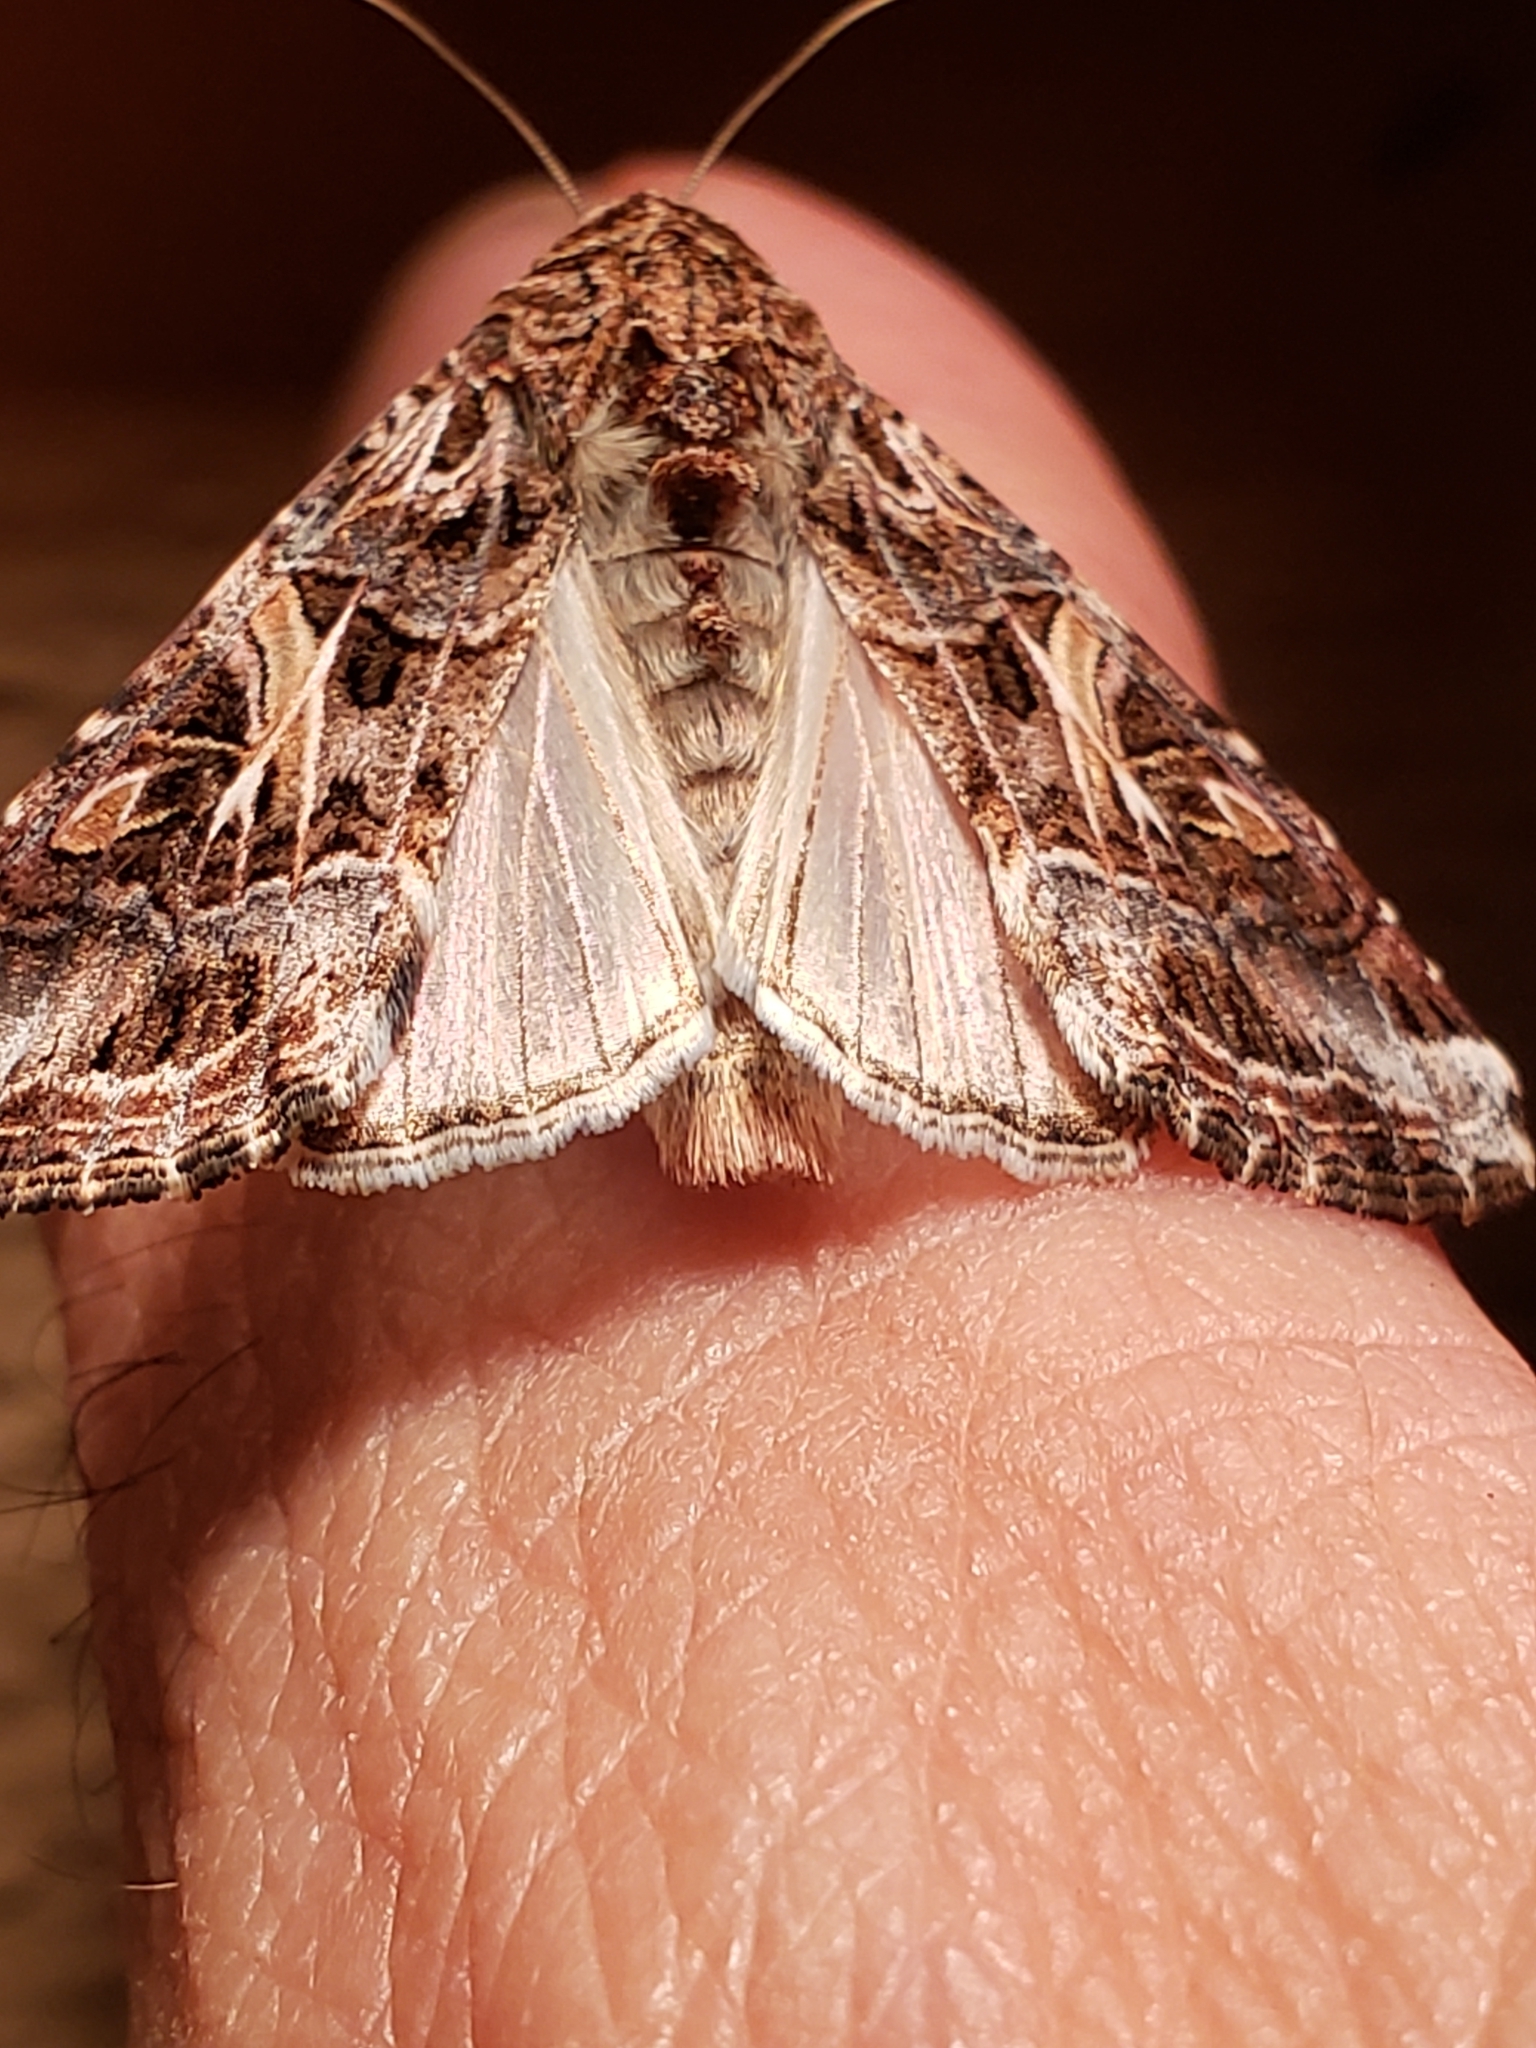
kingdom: Animalia
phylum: Arthropoda
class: Insecta
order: Lepidoptera
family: Noctuidae
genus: Spodoptera
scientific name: Spodoptera ornithogalli
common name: Yellow-striped armyworm
